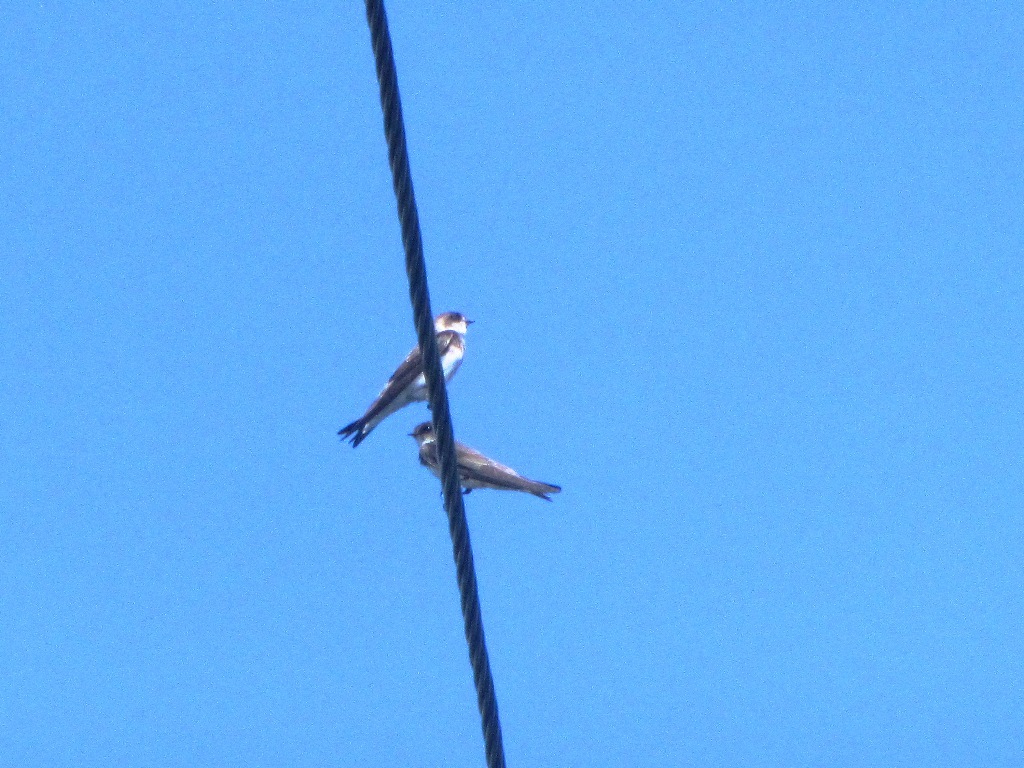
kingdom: Animalia
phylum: Chordata
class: Aves
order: Passeriformes
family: Hirundinidae
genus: Riparia
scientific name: Riparia riparia
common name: Sand martin
